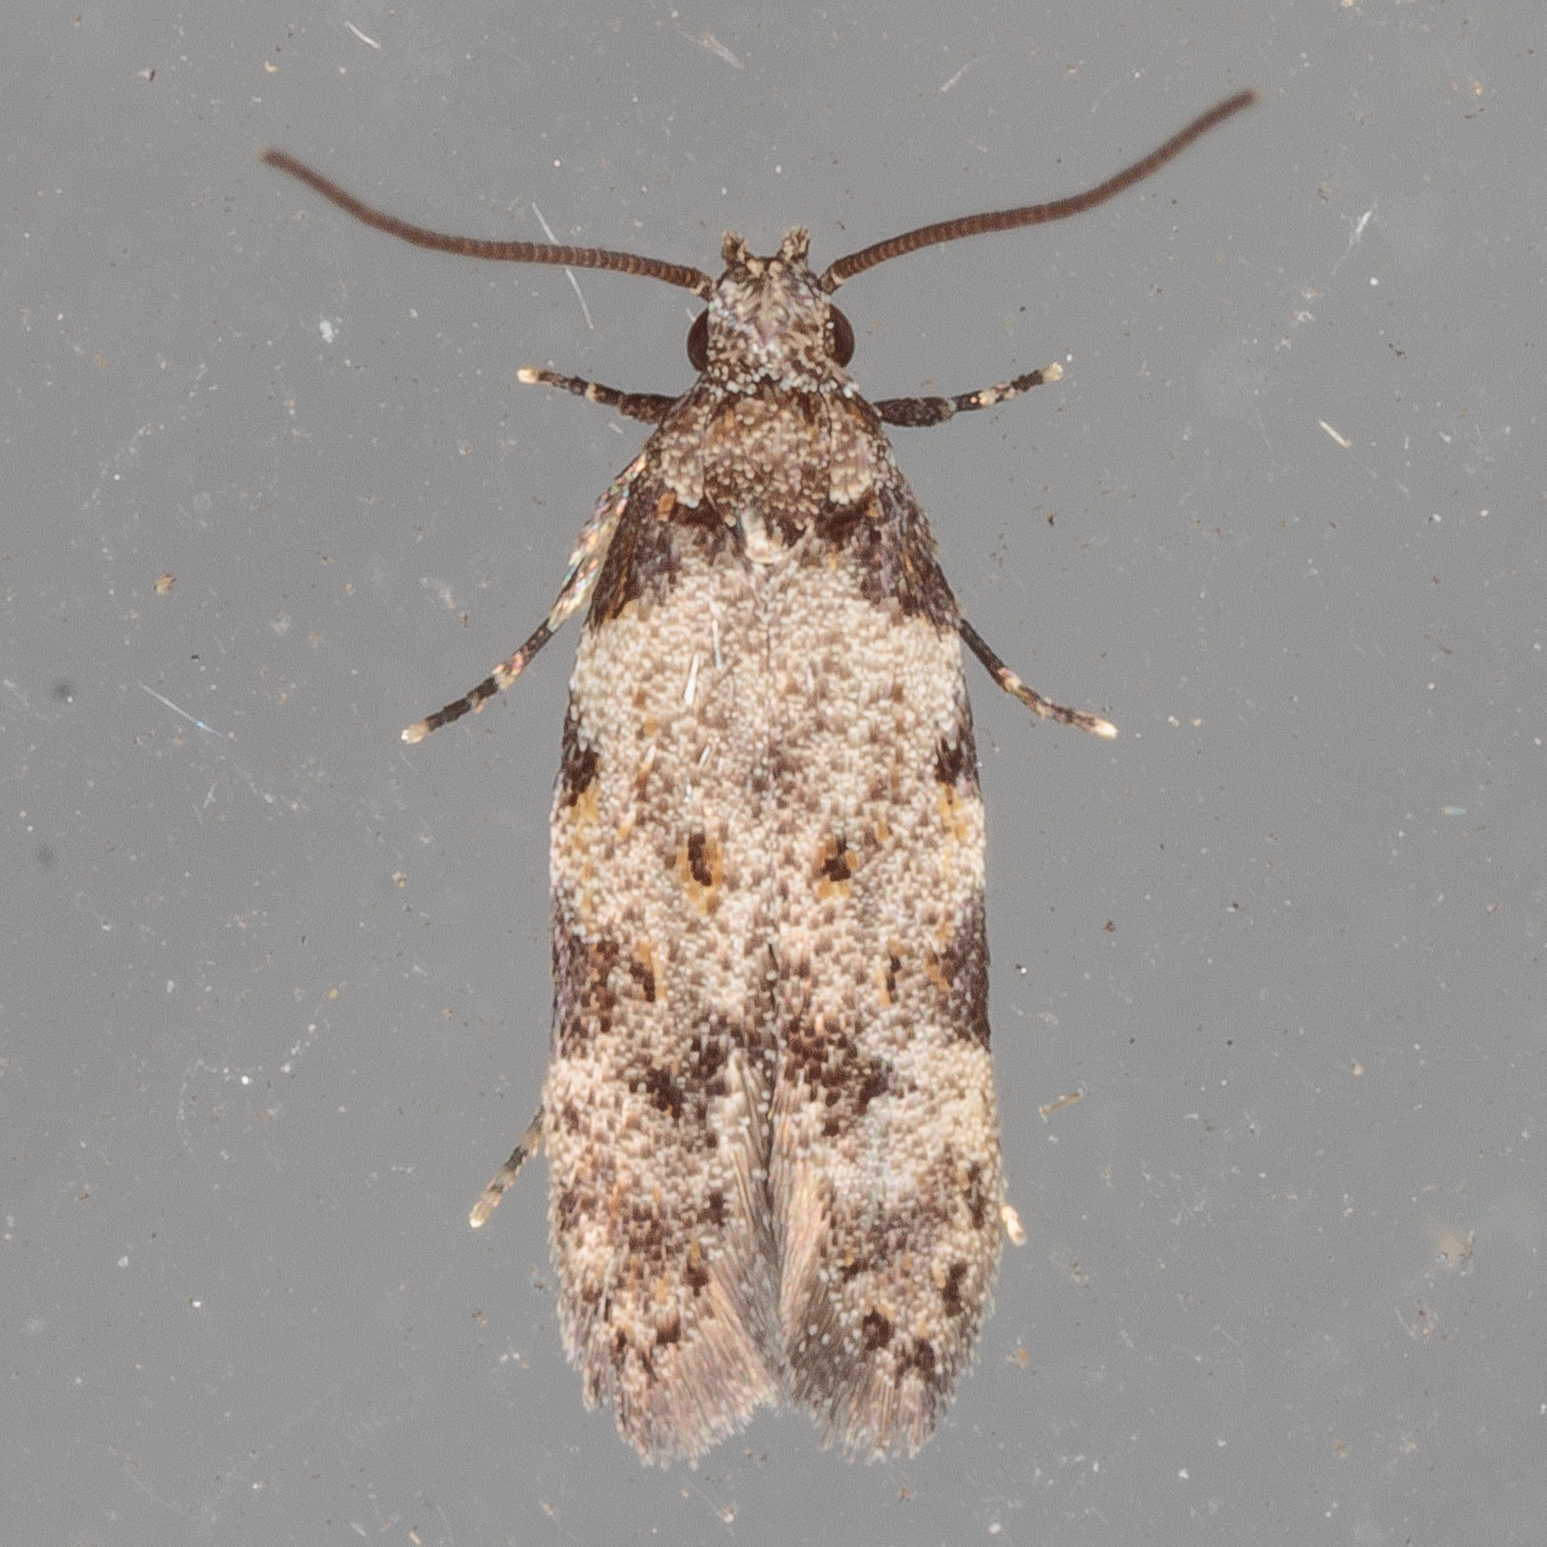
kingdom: Animalia
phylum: Arthropoda
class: Insecta
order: Lepidoptera
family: Autostichidae
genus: Taygete
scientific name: Taygete attributella
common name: Triangle-marked twirler moth
